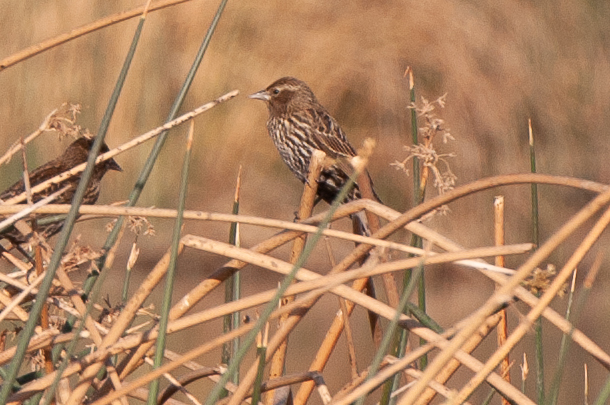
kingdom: Animalia
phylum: Chordata
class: Aves
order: Passeriformes
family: Icteridae
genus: Agelaius
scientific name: Agelaius phoeniceus
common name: Red-winged blackbird
